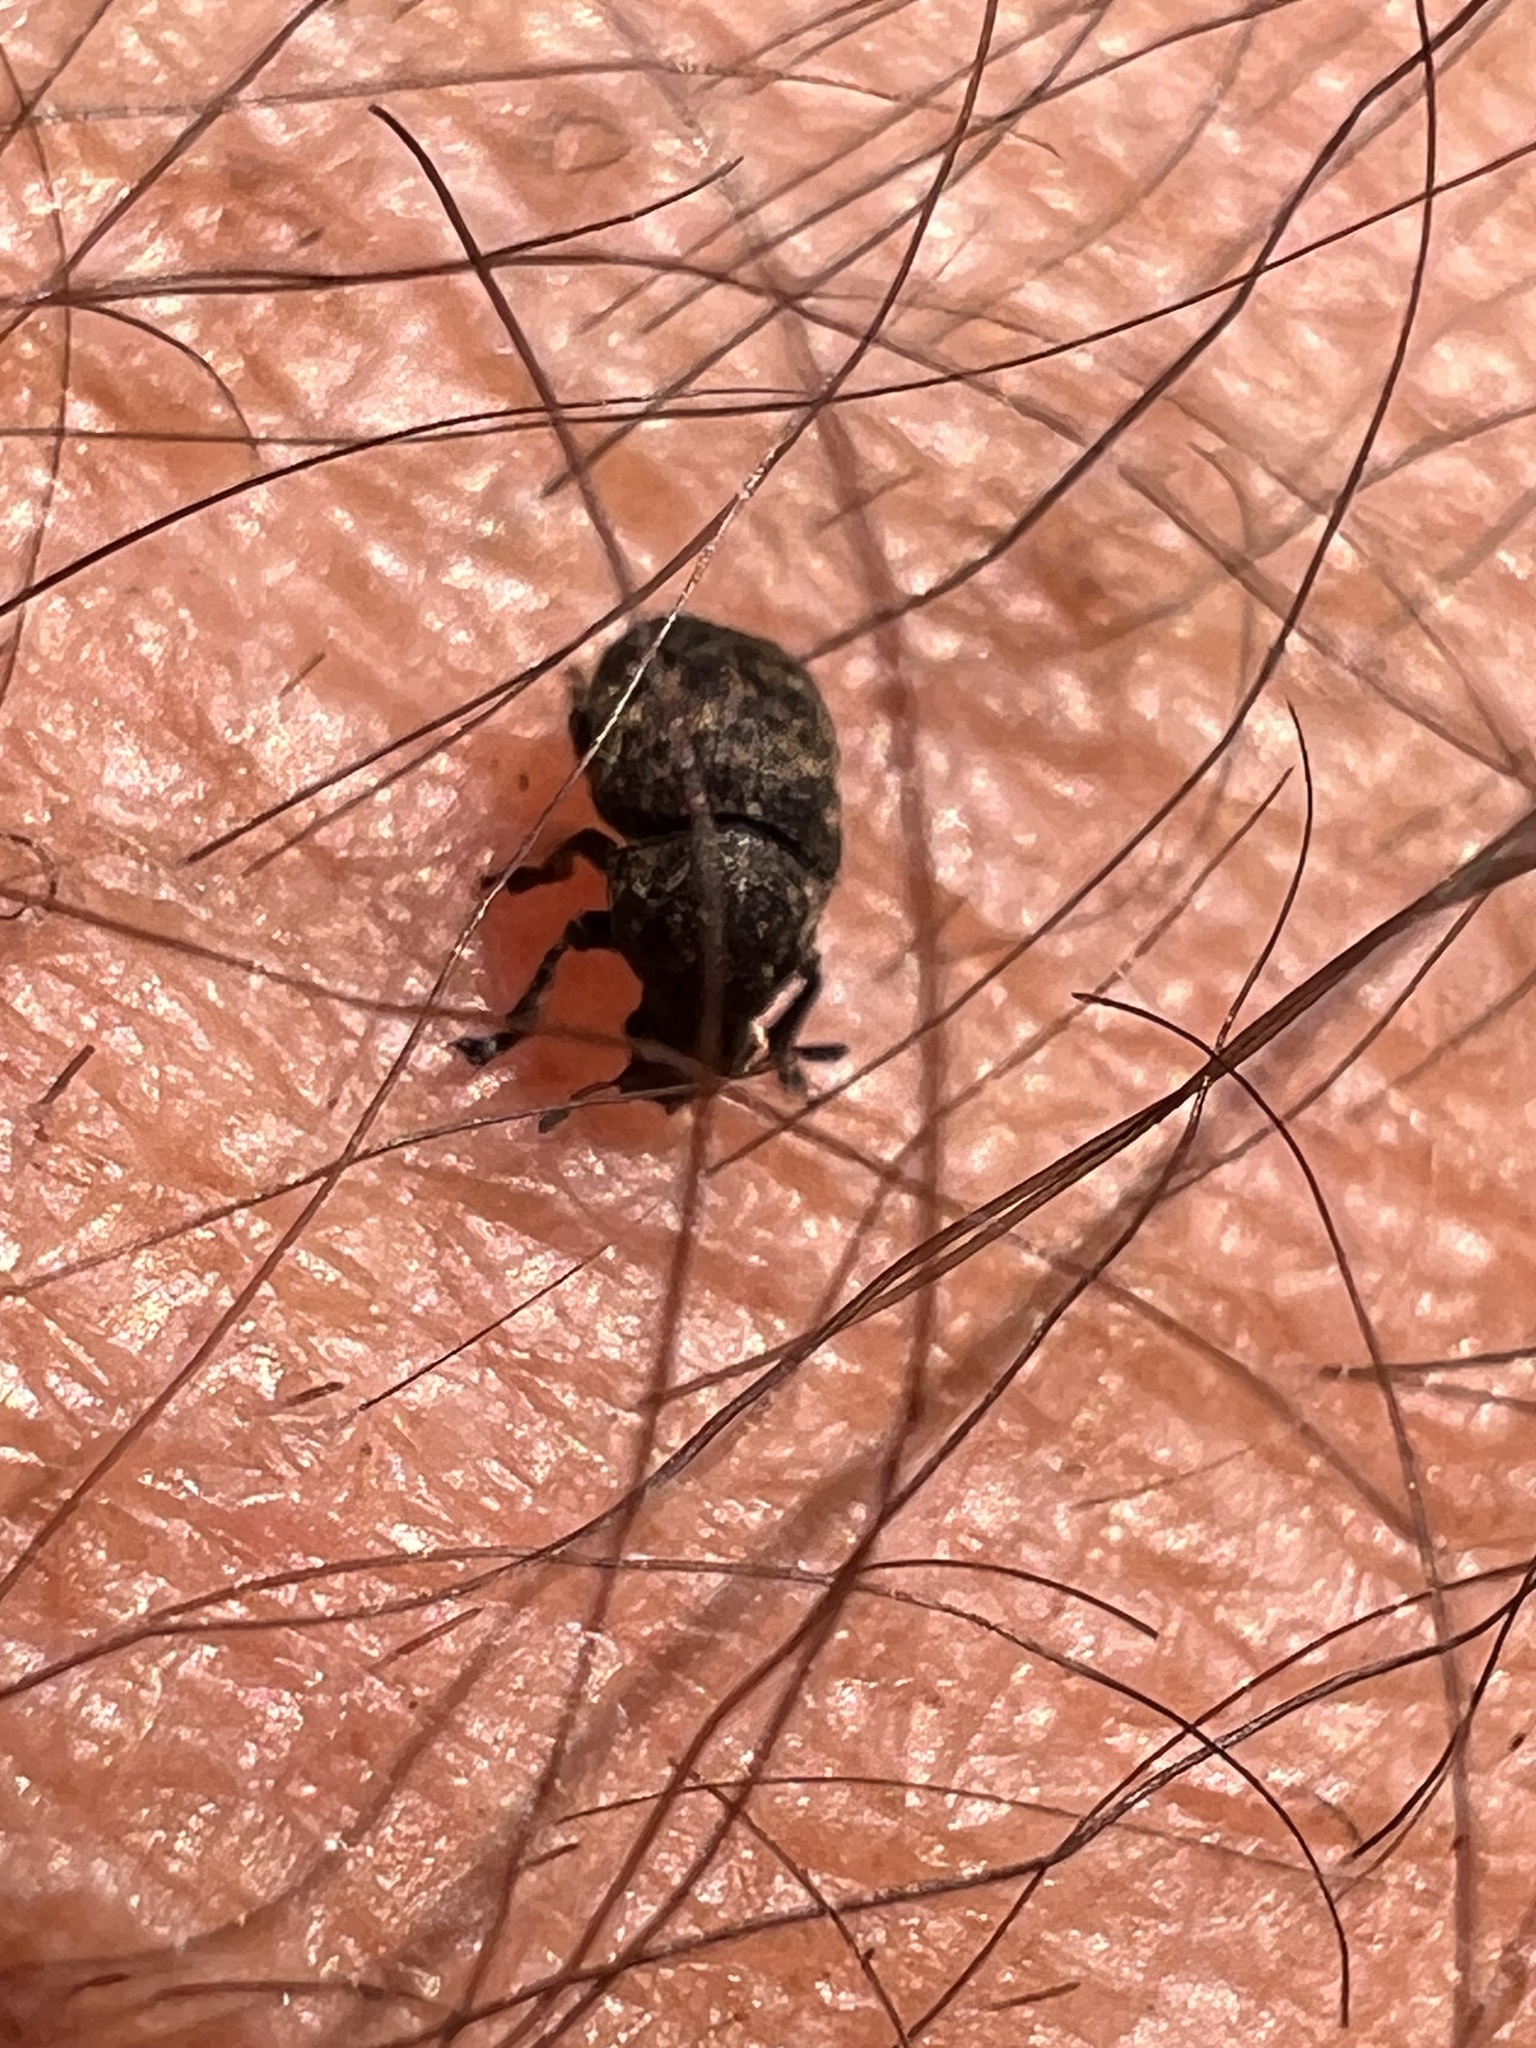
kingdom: Animalia
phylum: Arthropoda
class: Insecta
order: Coleoptera
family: Anthribidae
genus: Anthribus
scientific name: Anthribus nebulosus
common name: Fungus weevil
